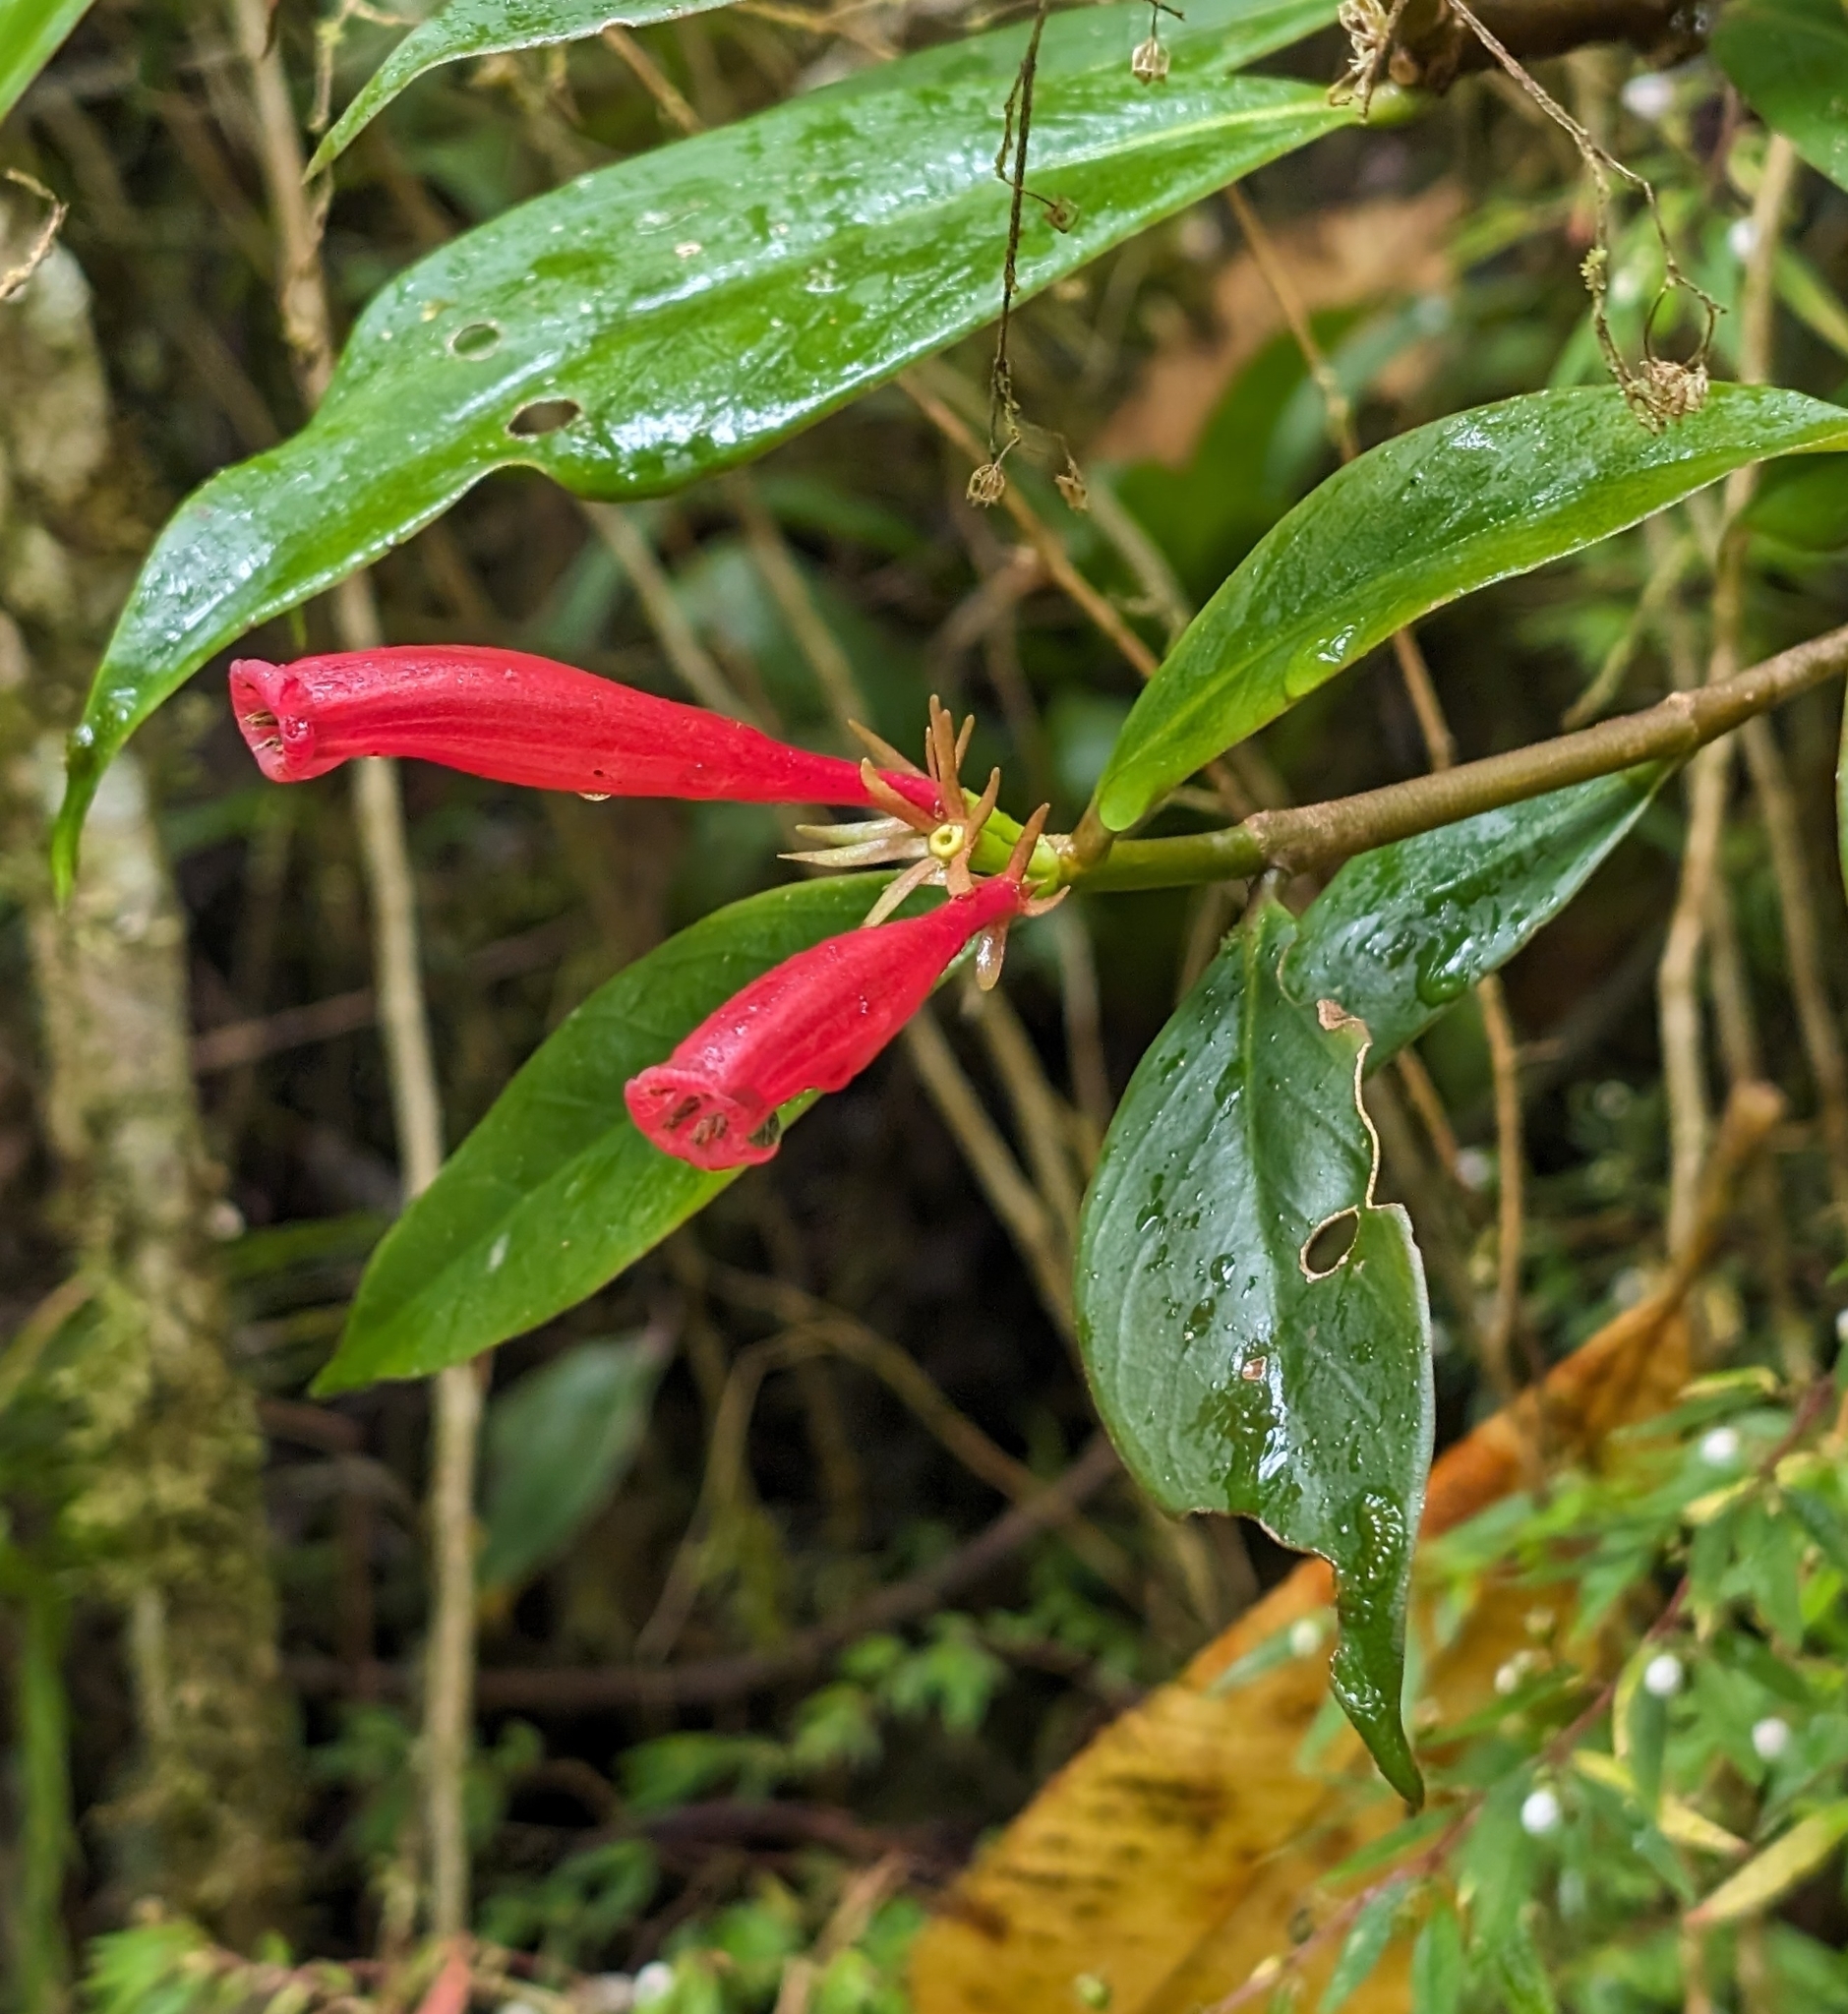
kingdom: Plantae
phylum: Tracheophyta
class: Magnoliopsida
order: Gentianales
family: Rubiaceae
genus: Hillia
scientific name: Hillia triflora
